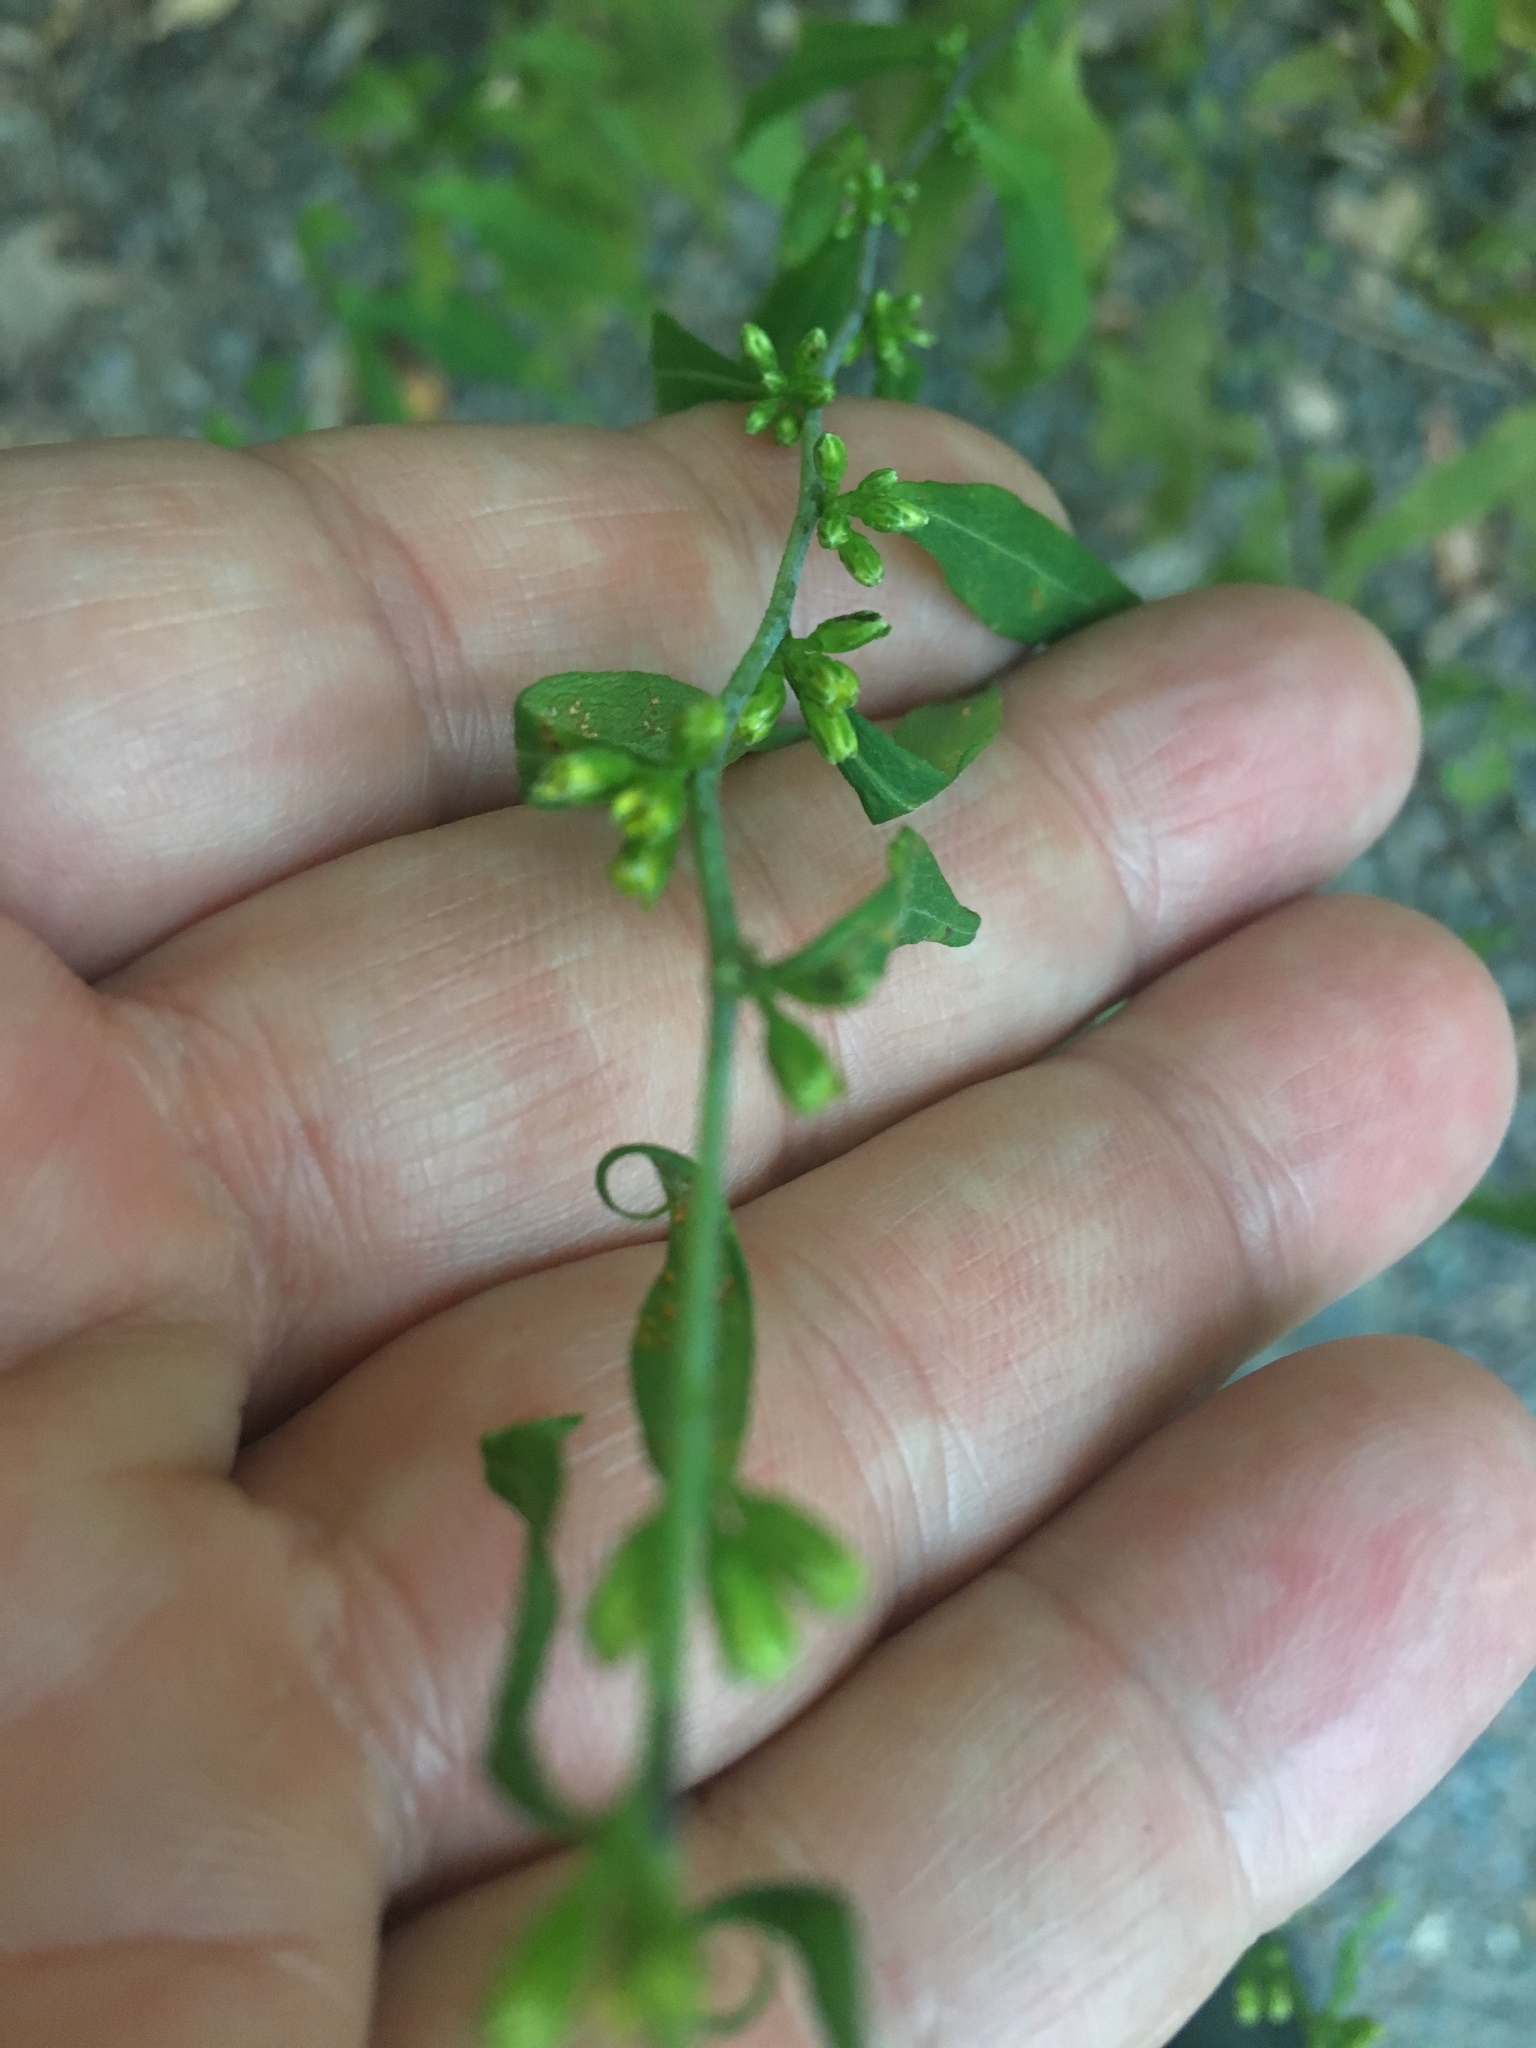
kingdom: Plantae
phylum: Tracheophyta
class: Magnoliopsida
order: Asterales
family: Asteraceae
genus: Solidago
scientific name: Solidago caesia
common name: Woodland goldenrod
